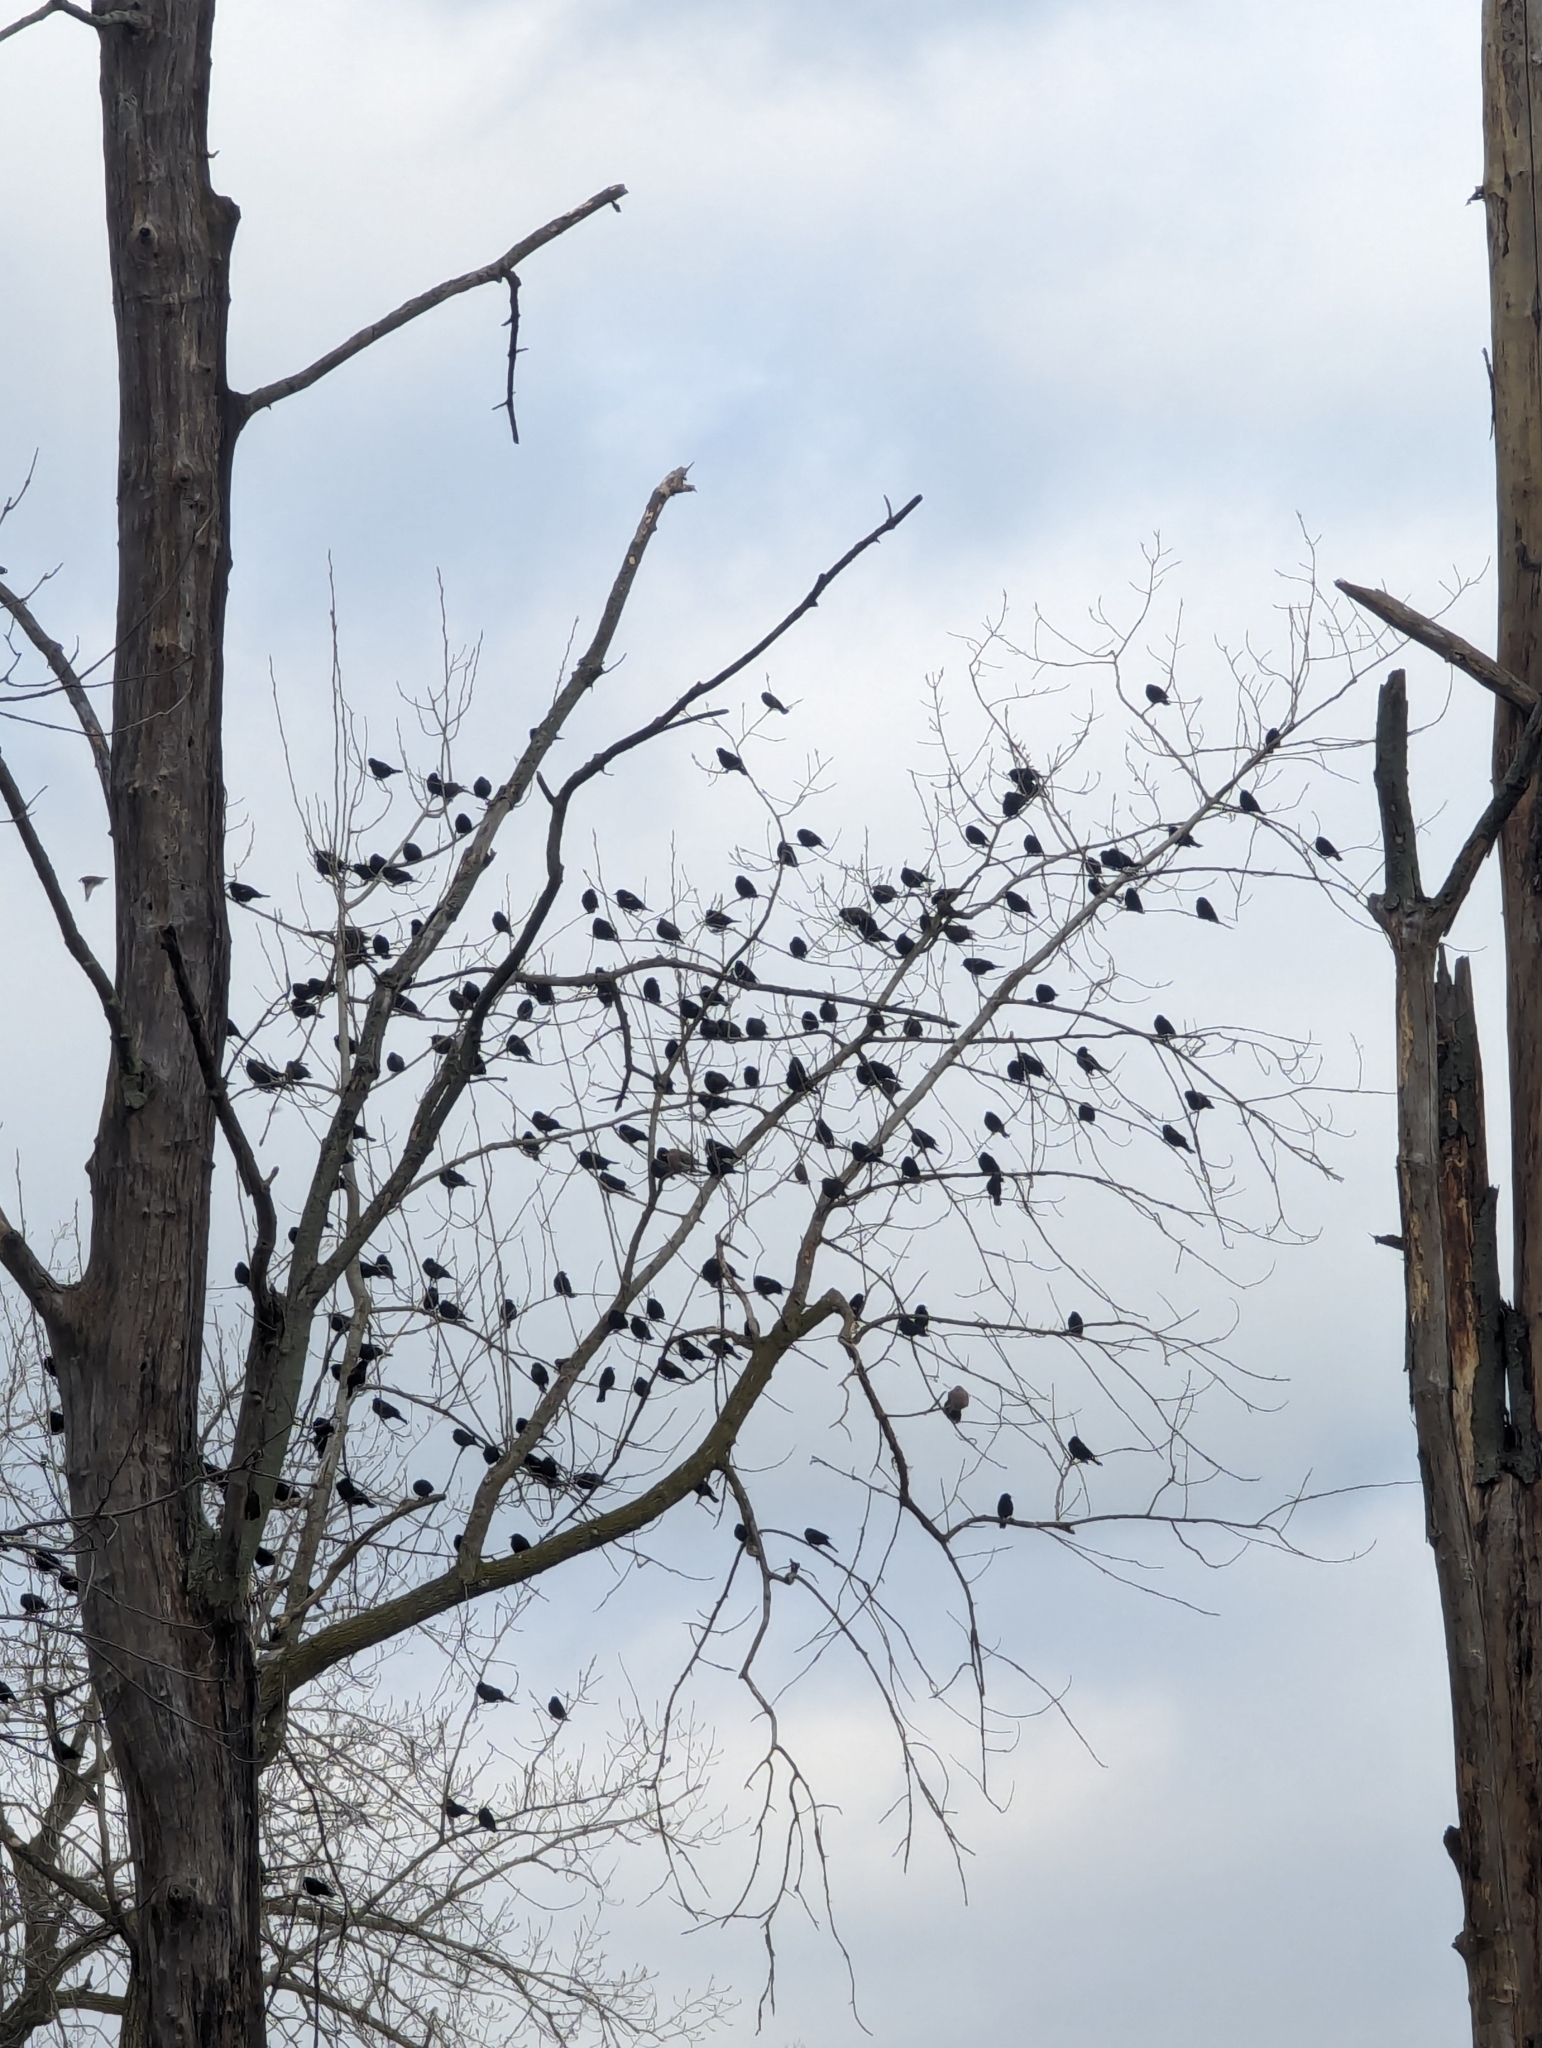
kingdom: Animalia
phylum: Chordata
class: Aves
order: Passeriformes
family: Icteridae
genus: Agelaius
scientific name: Agelaius phoeniceus
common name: Red-winged blackbird
